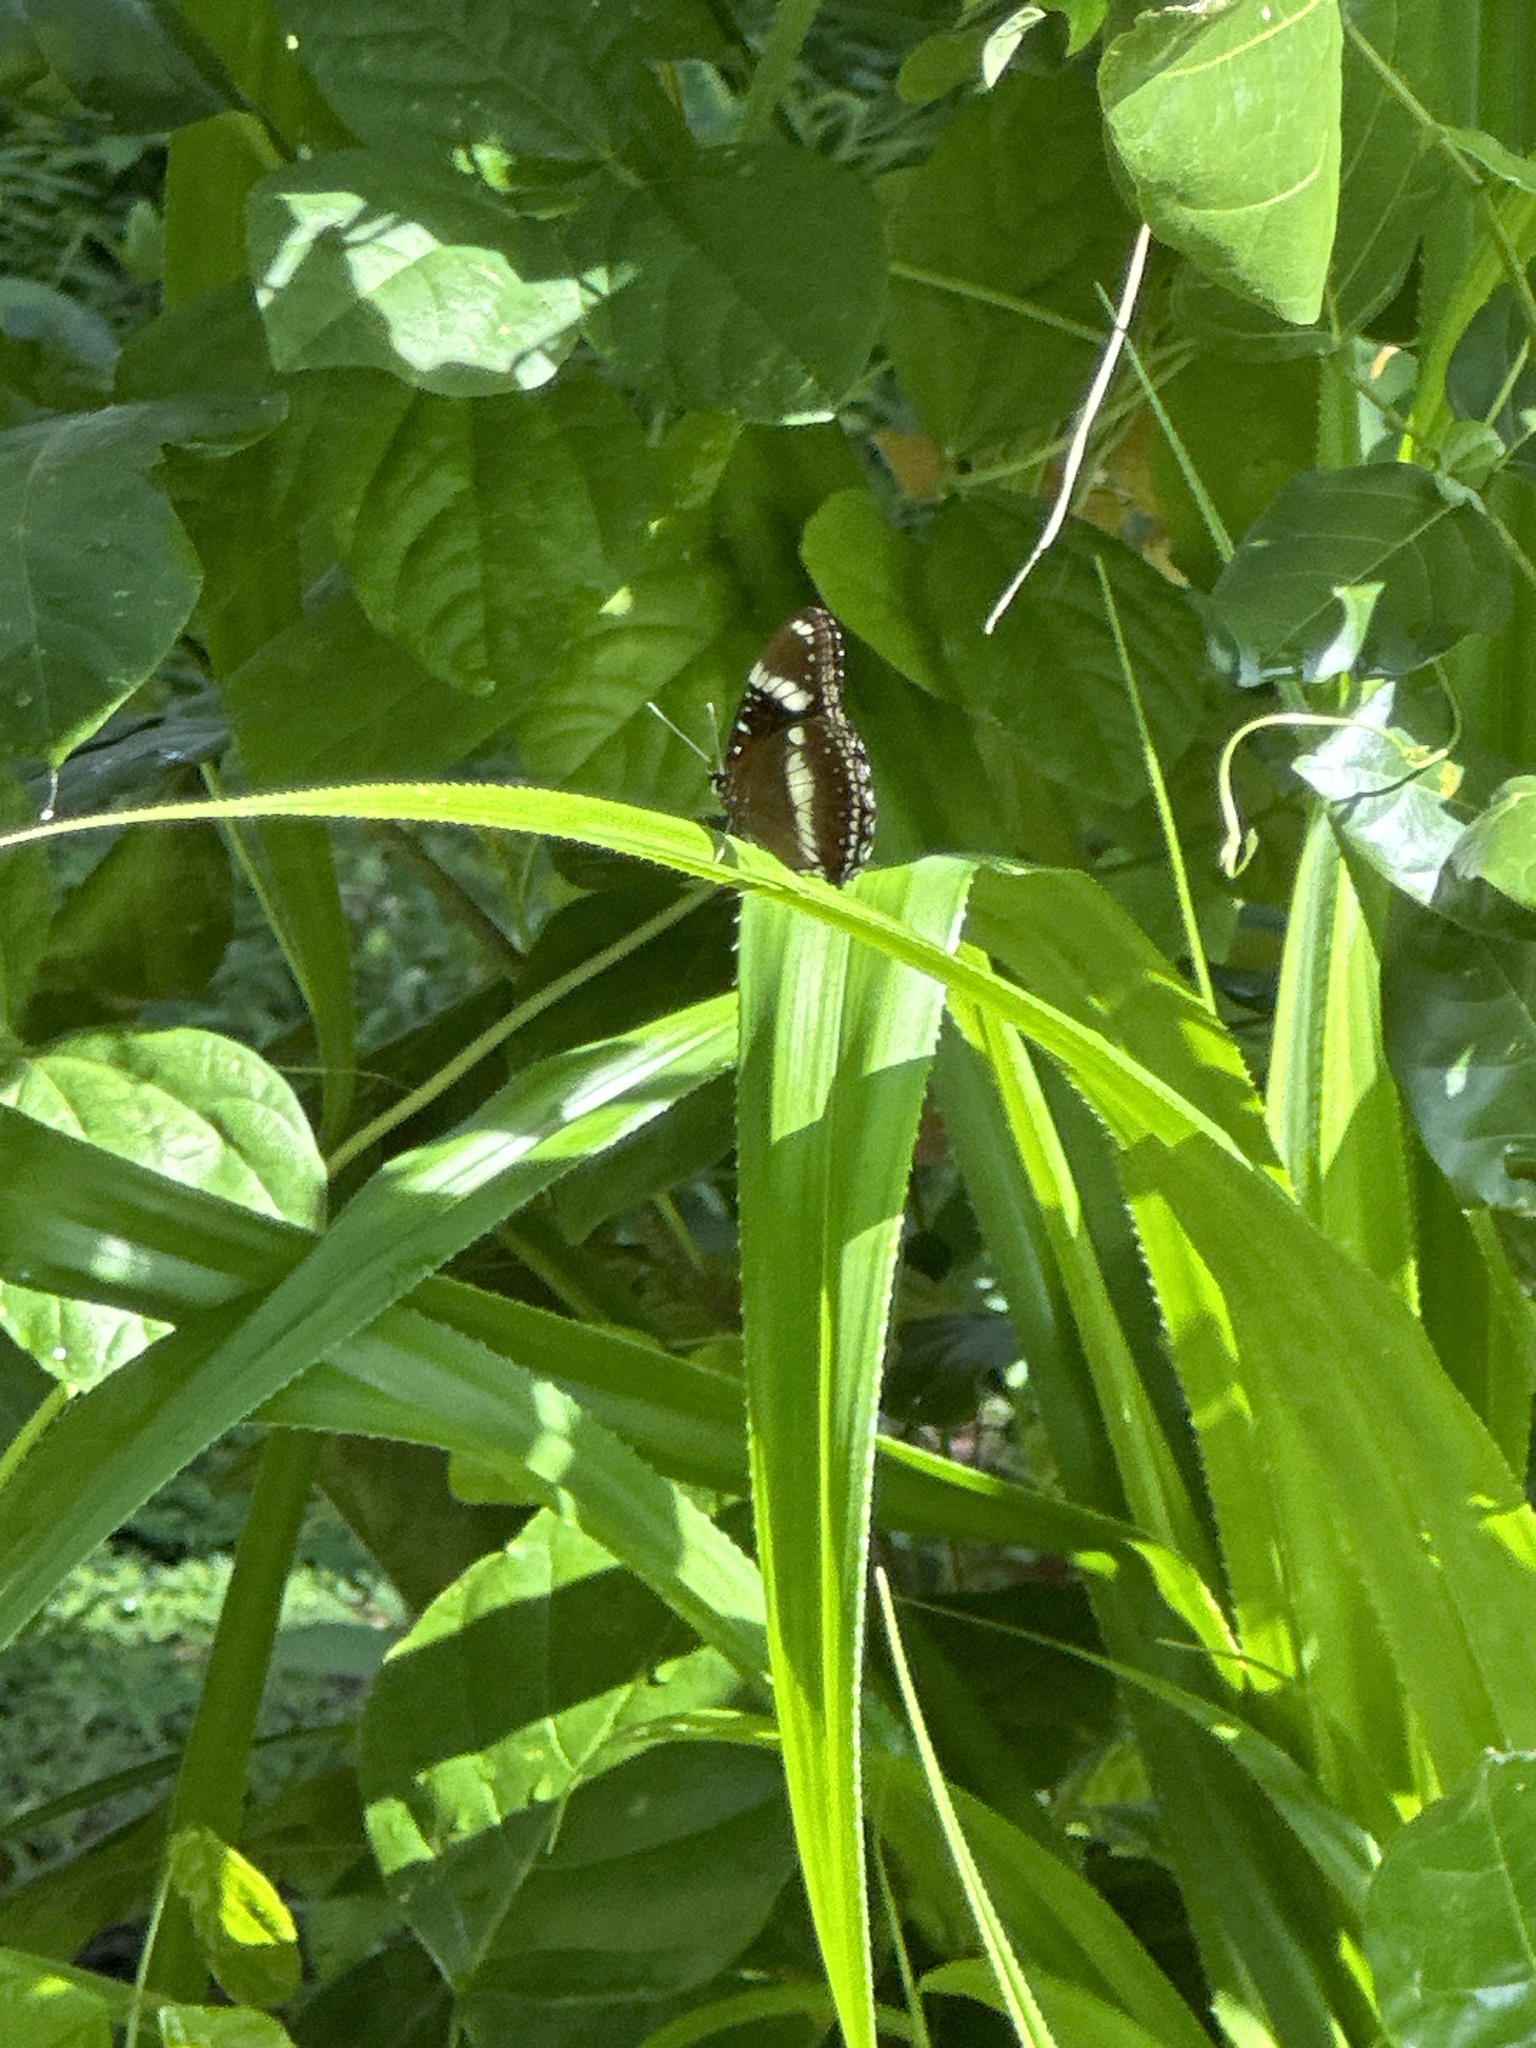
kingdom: Animalia
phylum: Arthropoda
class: Insecta
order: Lepidoptera
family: Nymphalidae
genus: Hypolimnas
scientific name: Hypolimnas bolina
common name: Great eggfly
